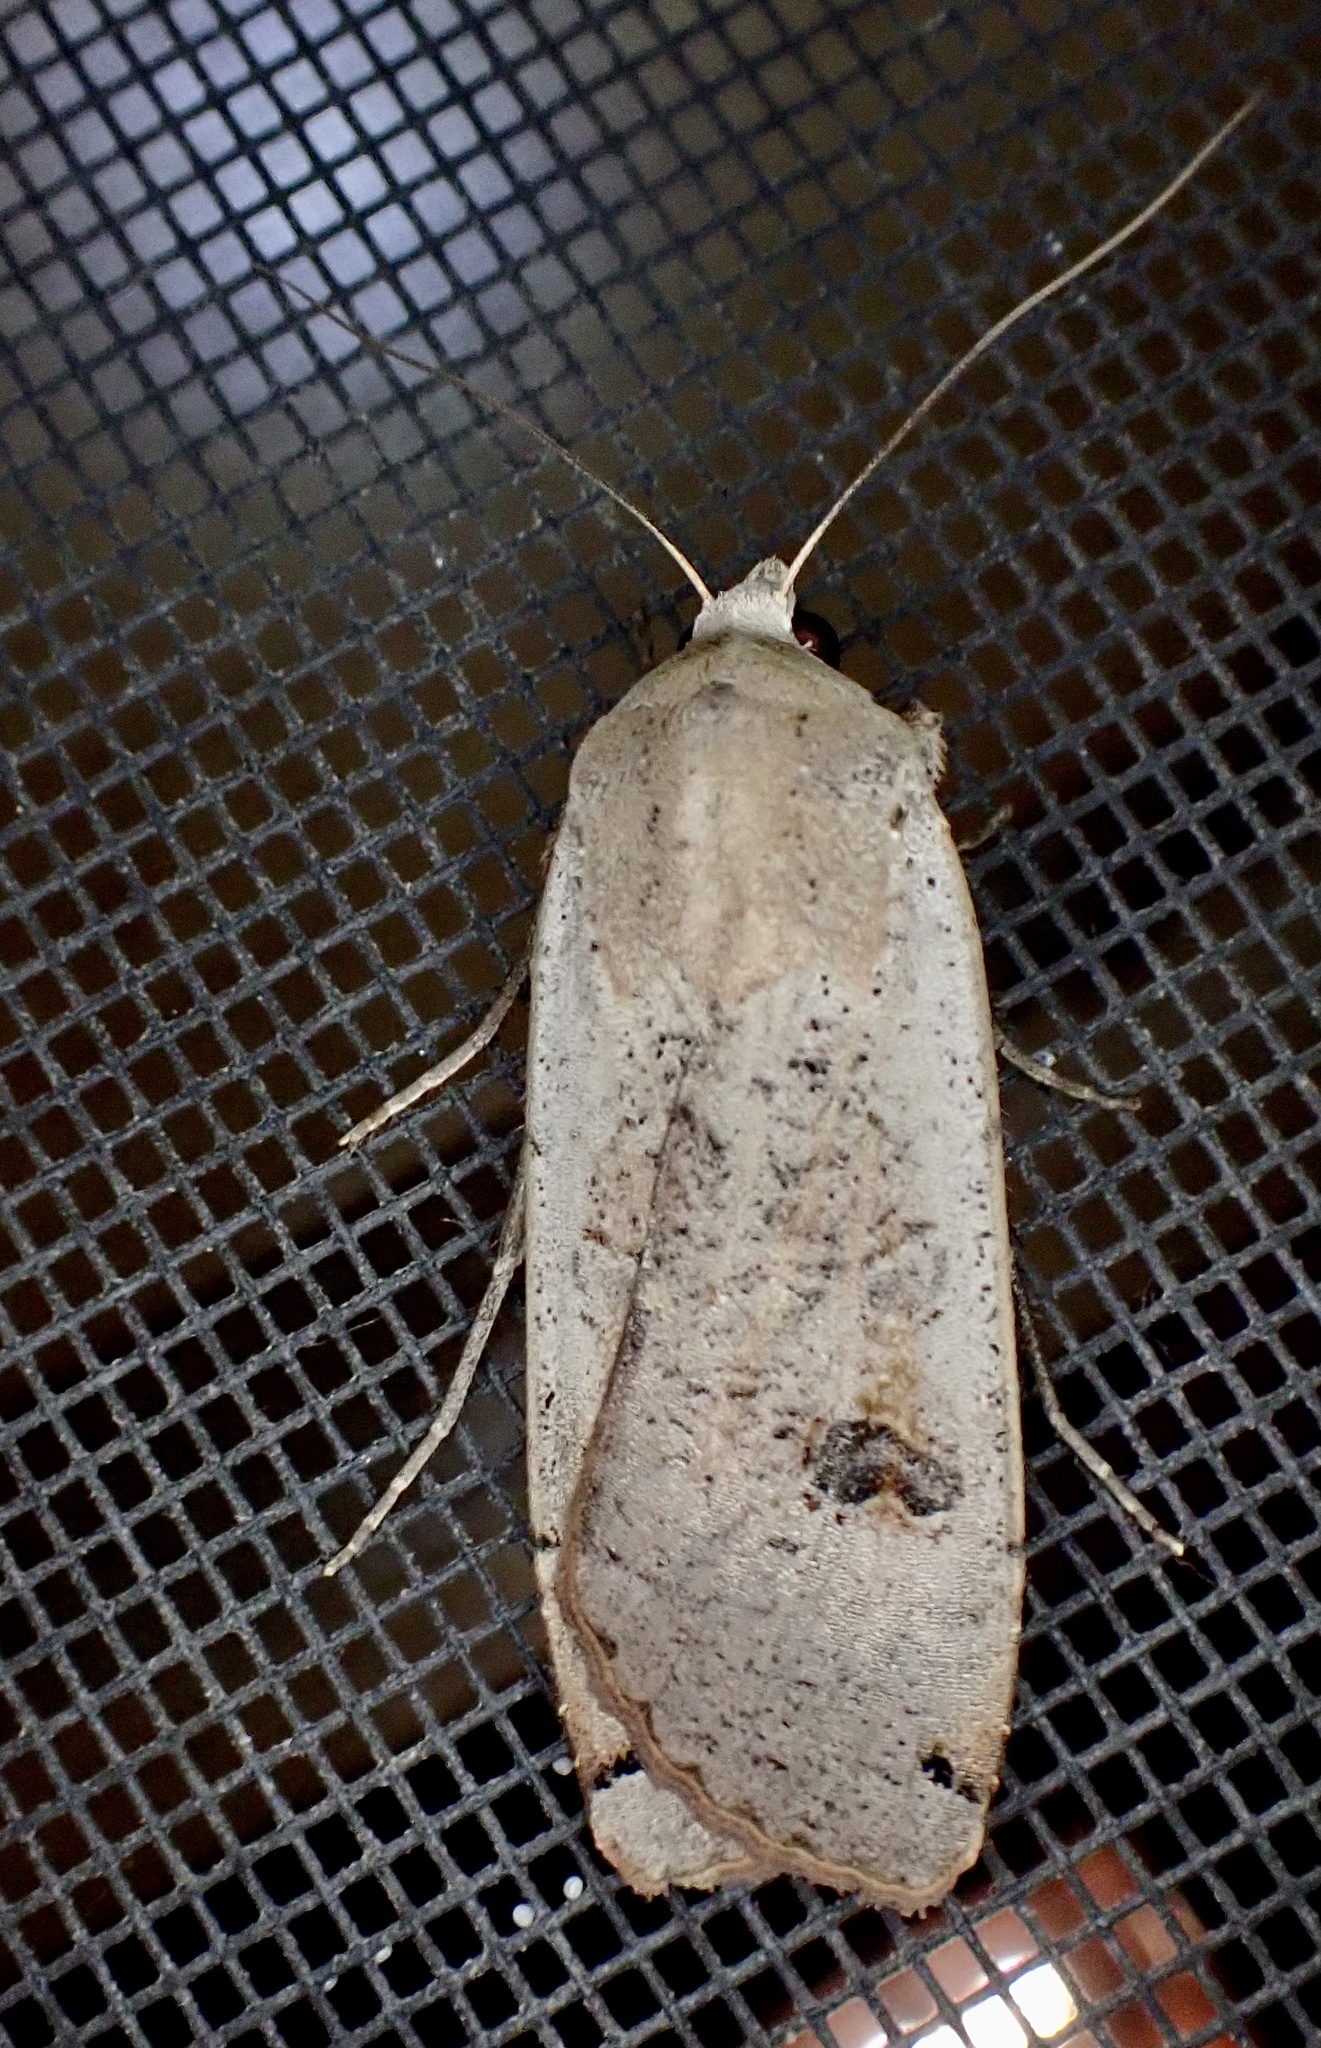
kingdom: Animalia
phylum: Arthropoda
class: Insecta
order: Lepidoptera
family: Noctuidae
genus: Noctua
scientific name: Noctua pronuba
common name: Large yellow underwing
